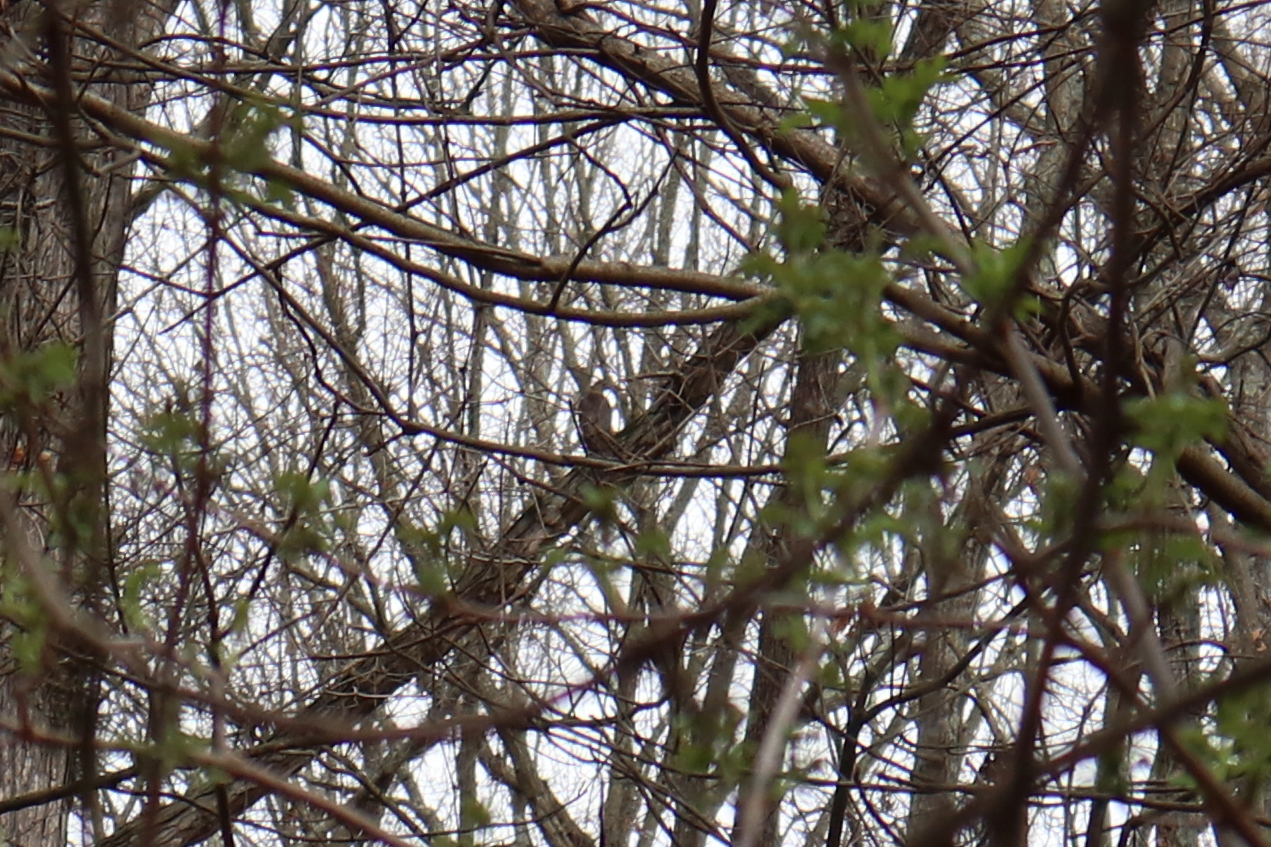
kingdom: Animalia
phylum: Chordata
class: Aves
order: Accipitriformes
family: Accipitridae
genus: Accipiter
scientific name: Accipiter cooperii
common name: Cooper's hawk
